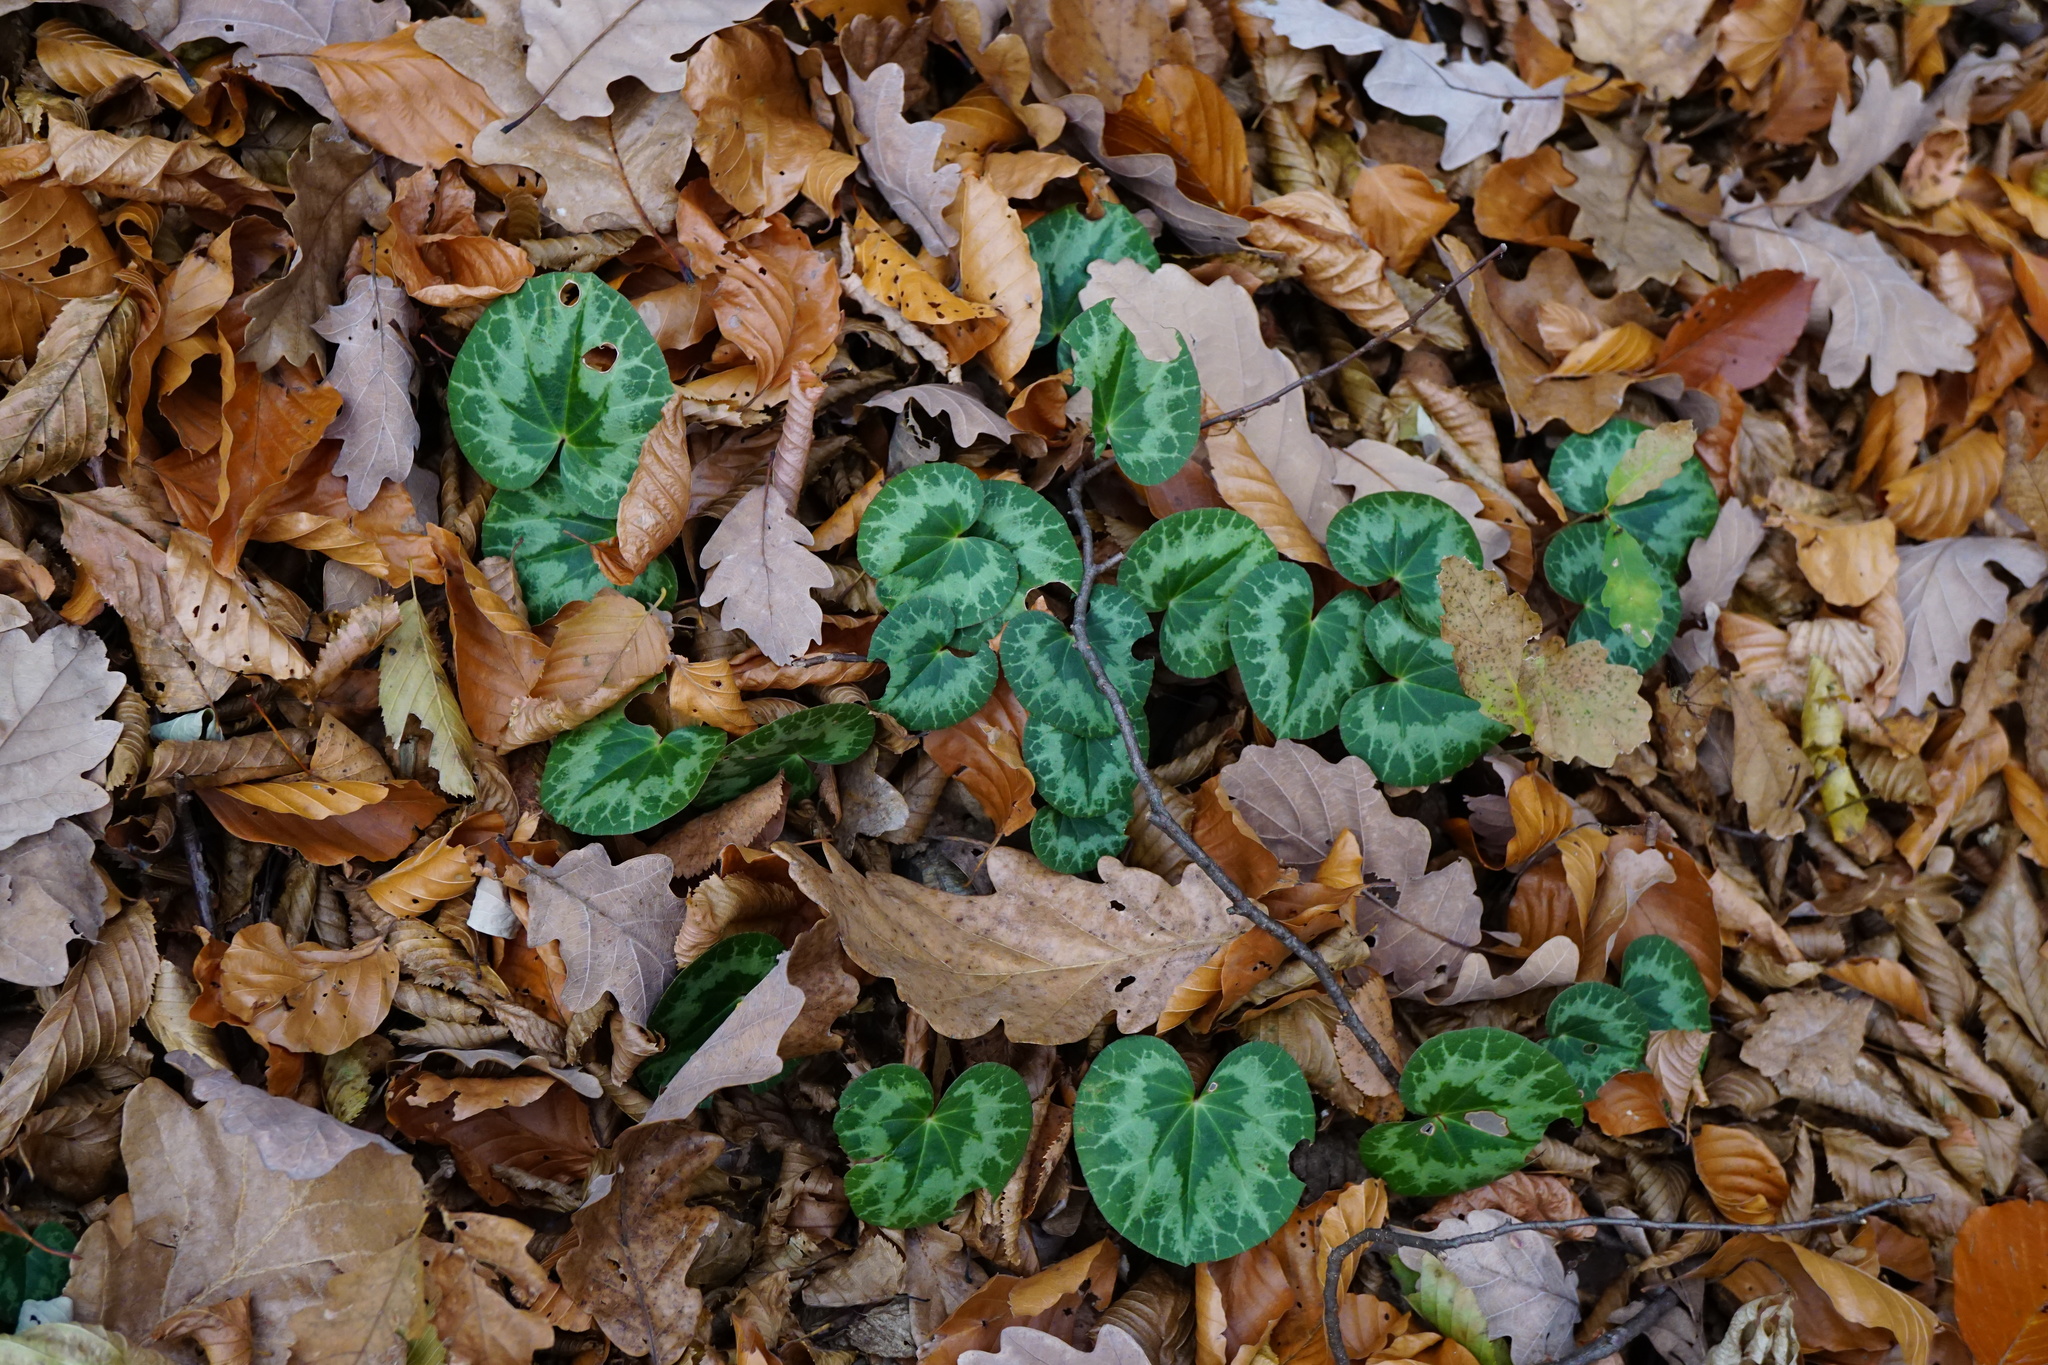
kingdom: Plantae
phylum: Tracheophyta
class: Magnoliopsida
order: Ericales
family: Primulaceae
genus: Cyclamen
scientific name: Cyclamen purpurascens
